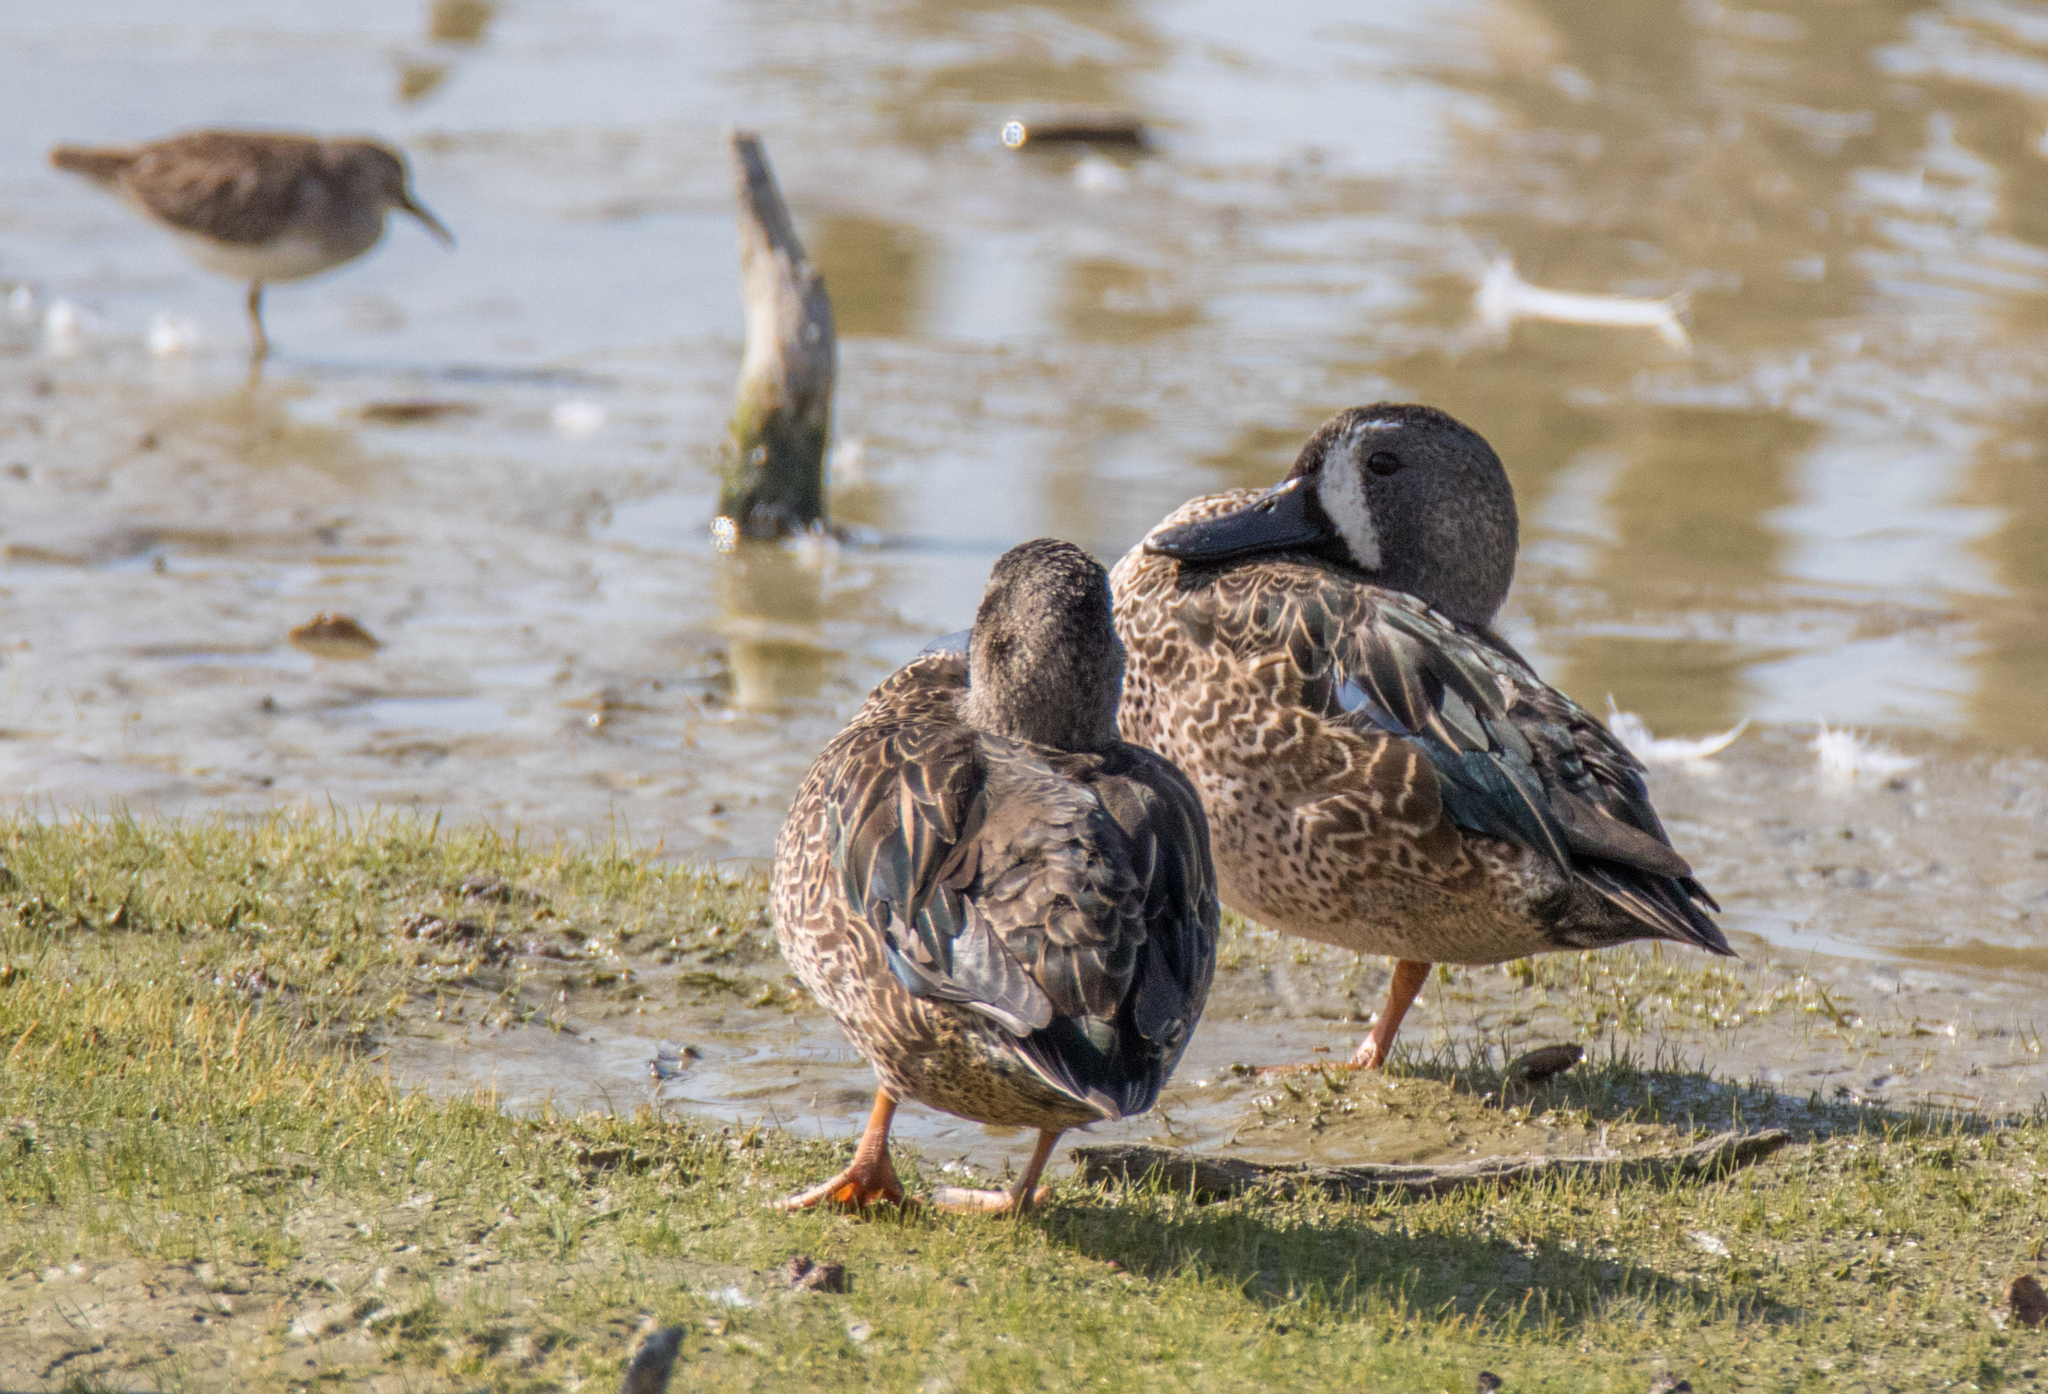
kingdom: Animalia
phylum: Chordata
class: Aves
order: Anseriformes
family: Anatidae
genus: Spatula
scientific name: Spatula discors
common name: Blue-winged teal
